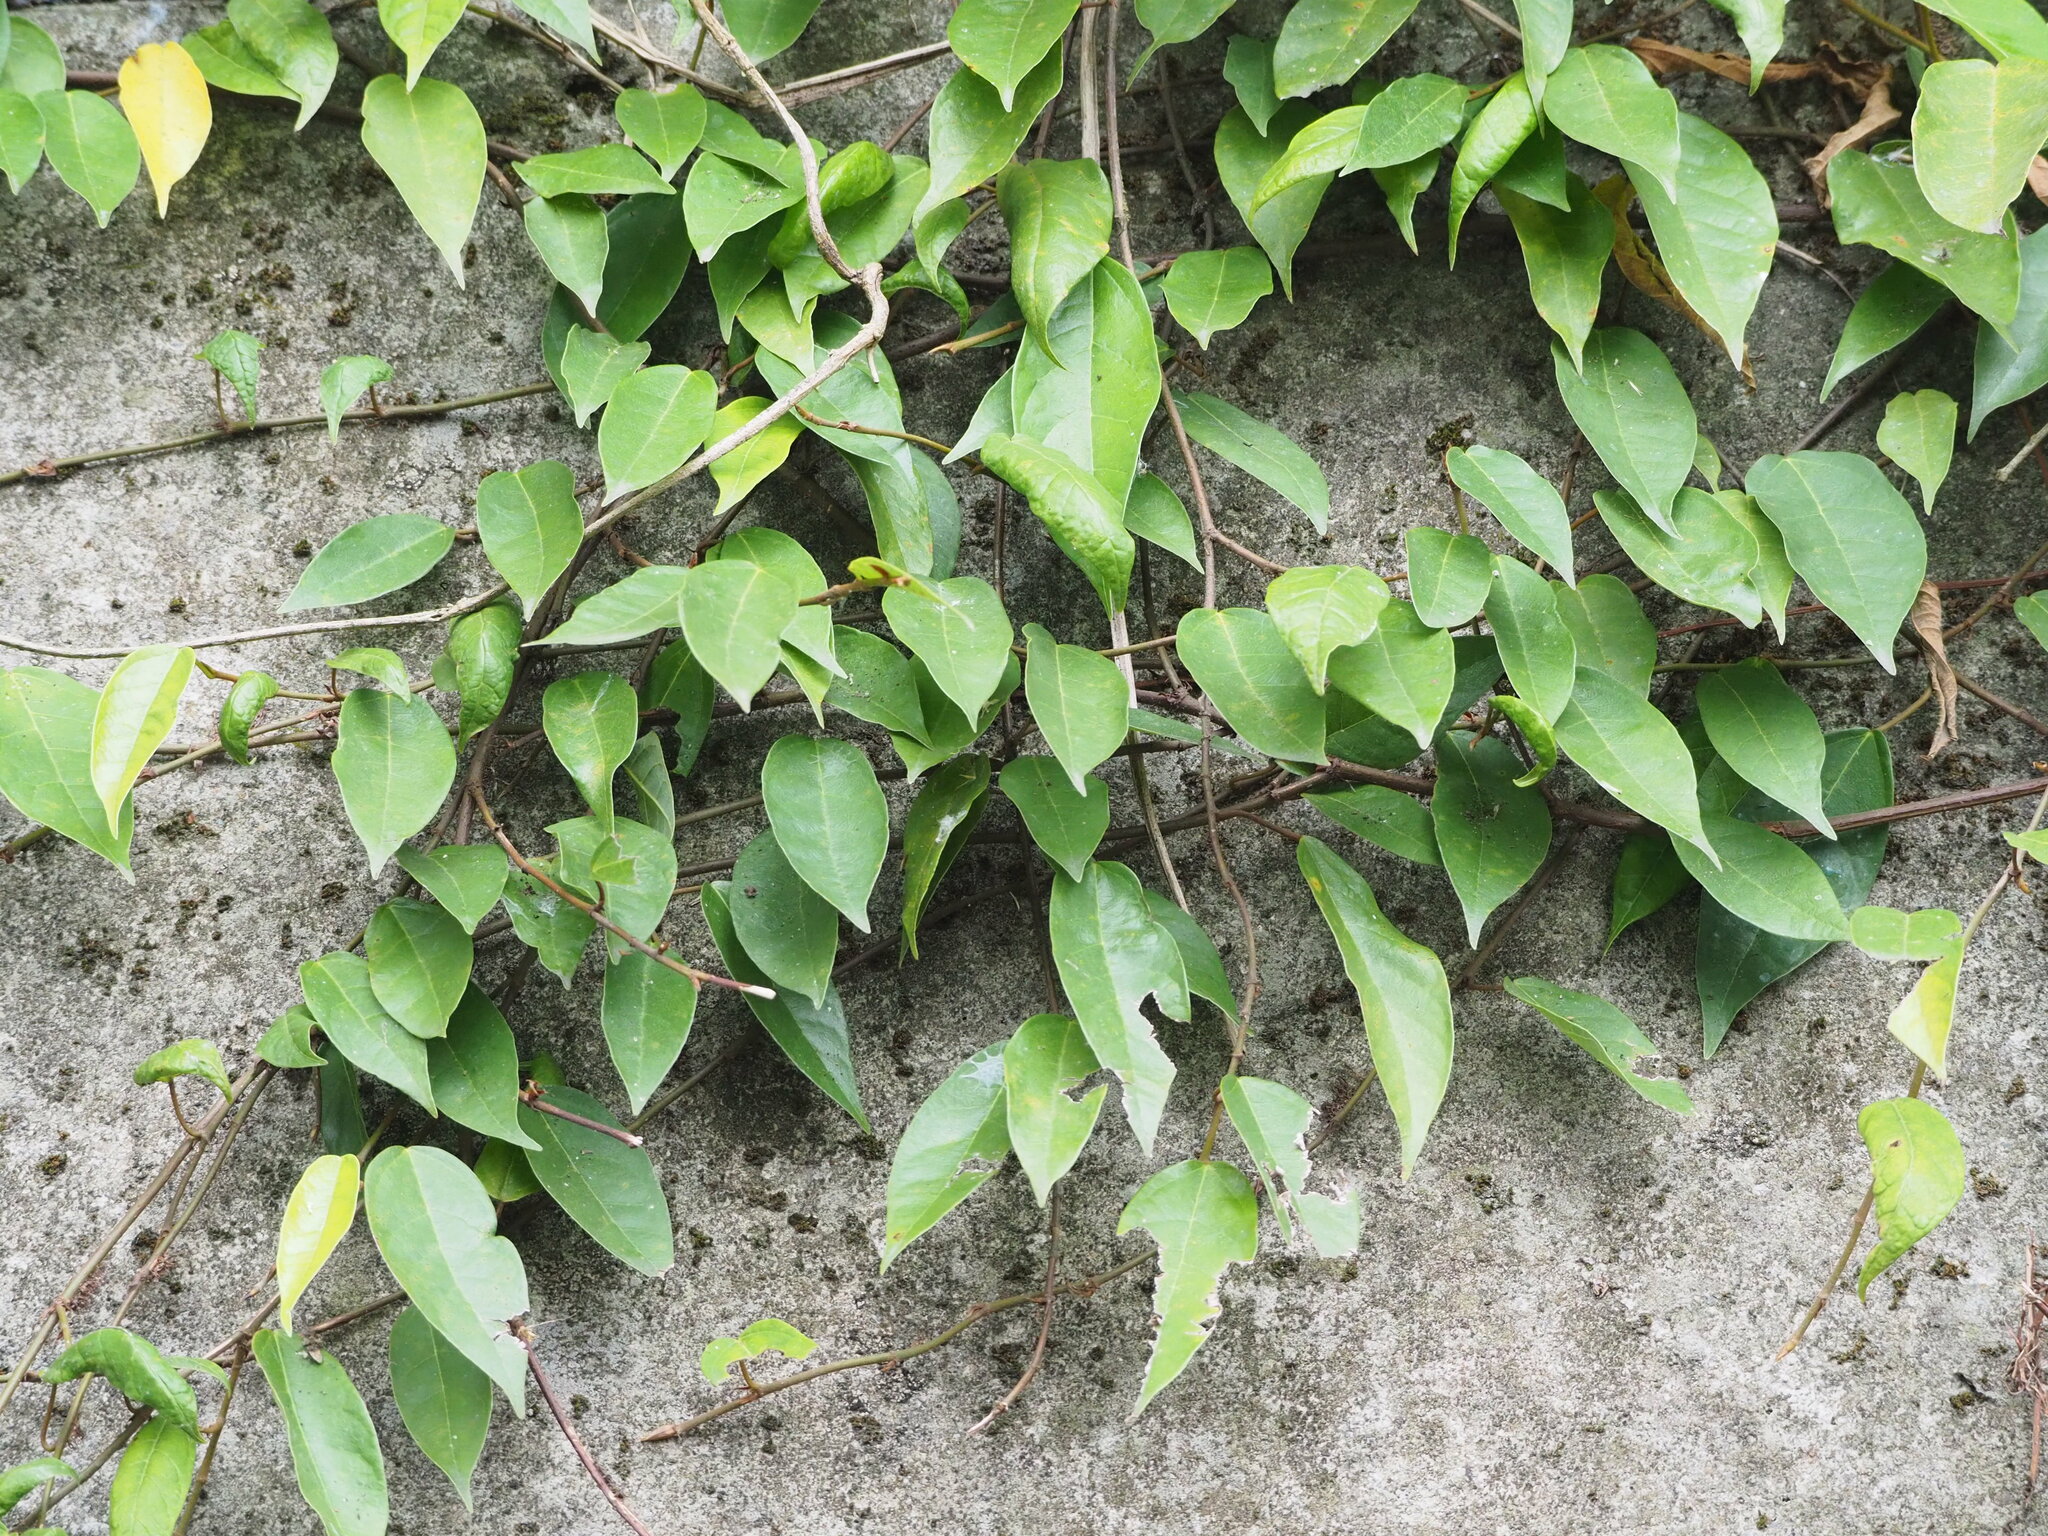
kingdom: Plantae
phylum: Tracheophyta
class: Magnoliopsida
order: Rosales
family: Moraceae
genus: Ficus
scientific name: Ficus sarmentosa
